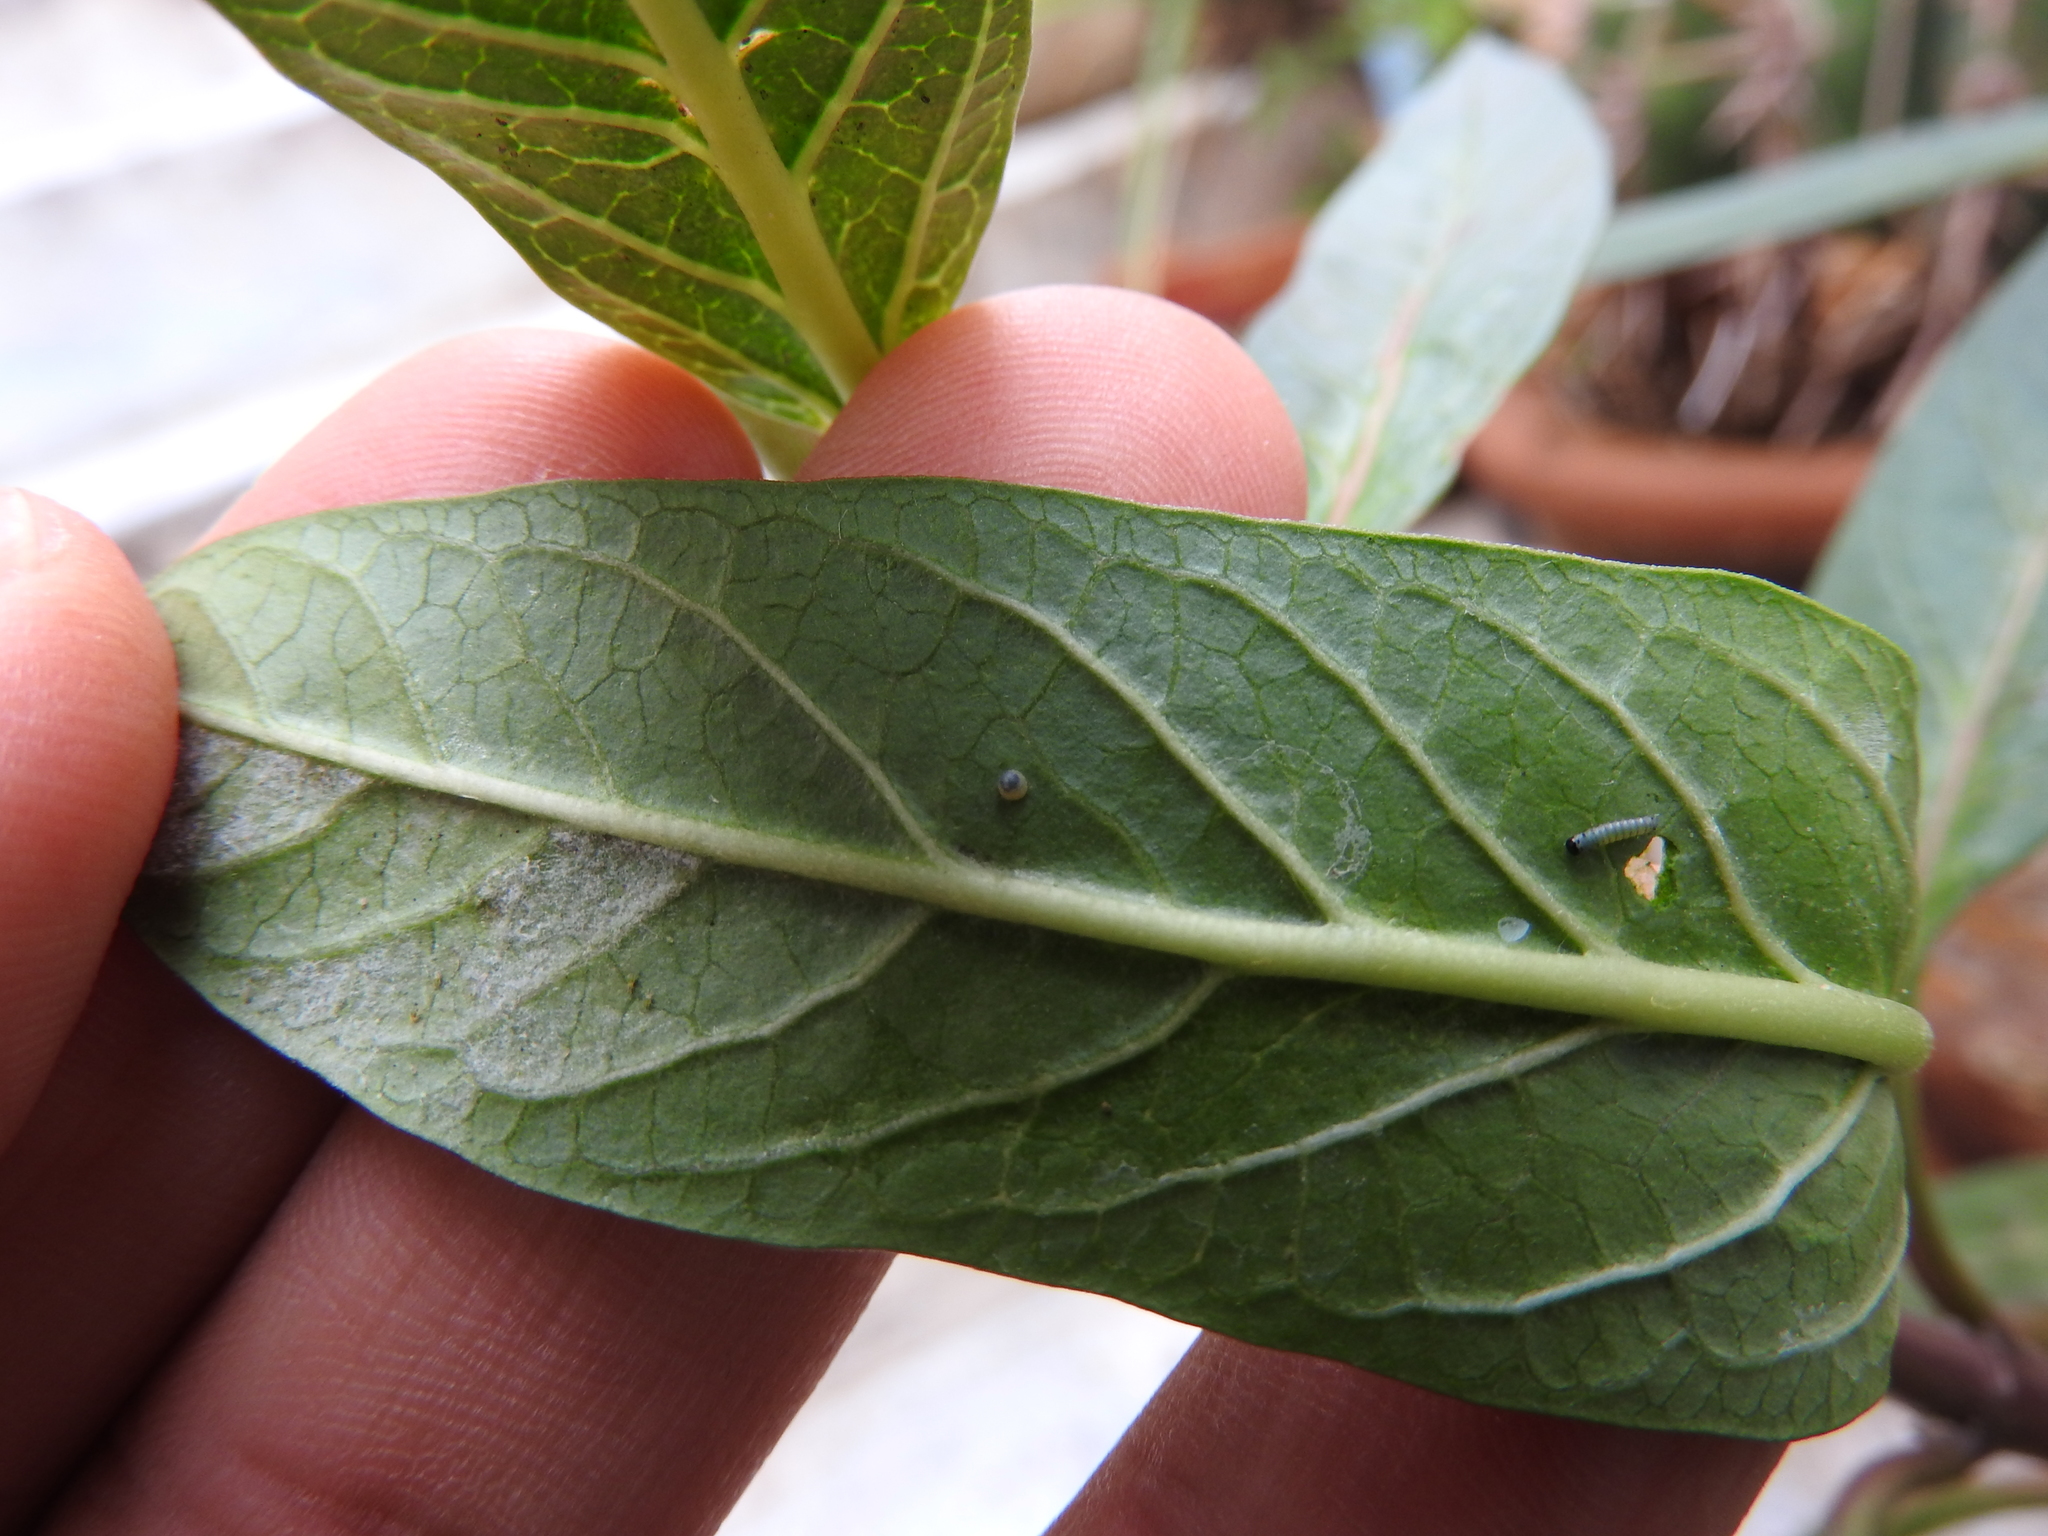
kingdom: Animalia
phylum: Arthropoda
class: Insecta
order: Lepidoptera
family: Nymphalidae
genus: Danaus
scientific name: Danaus plexippus
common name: Monarch
